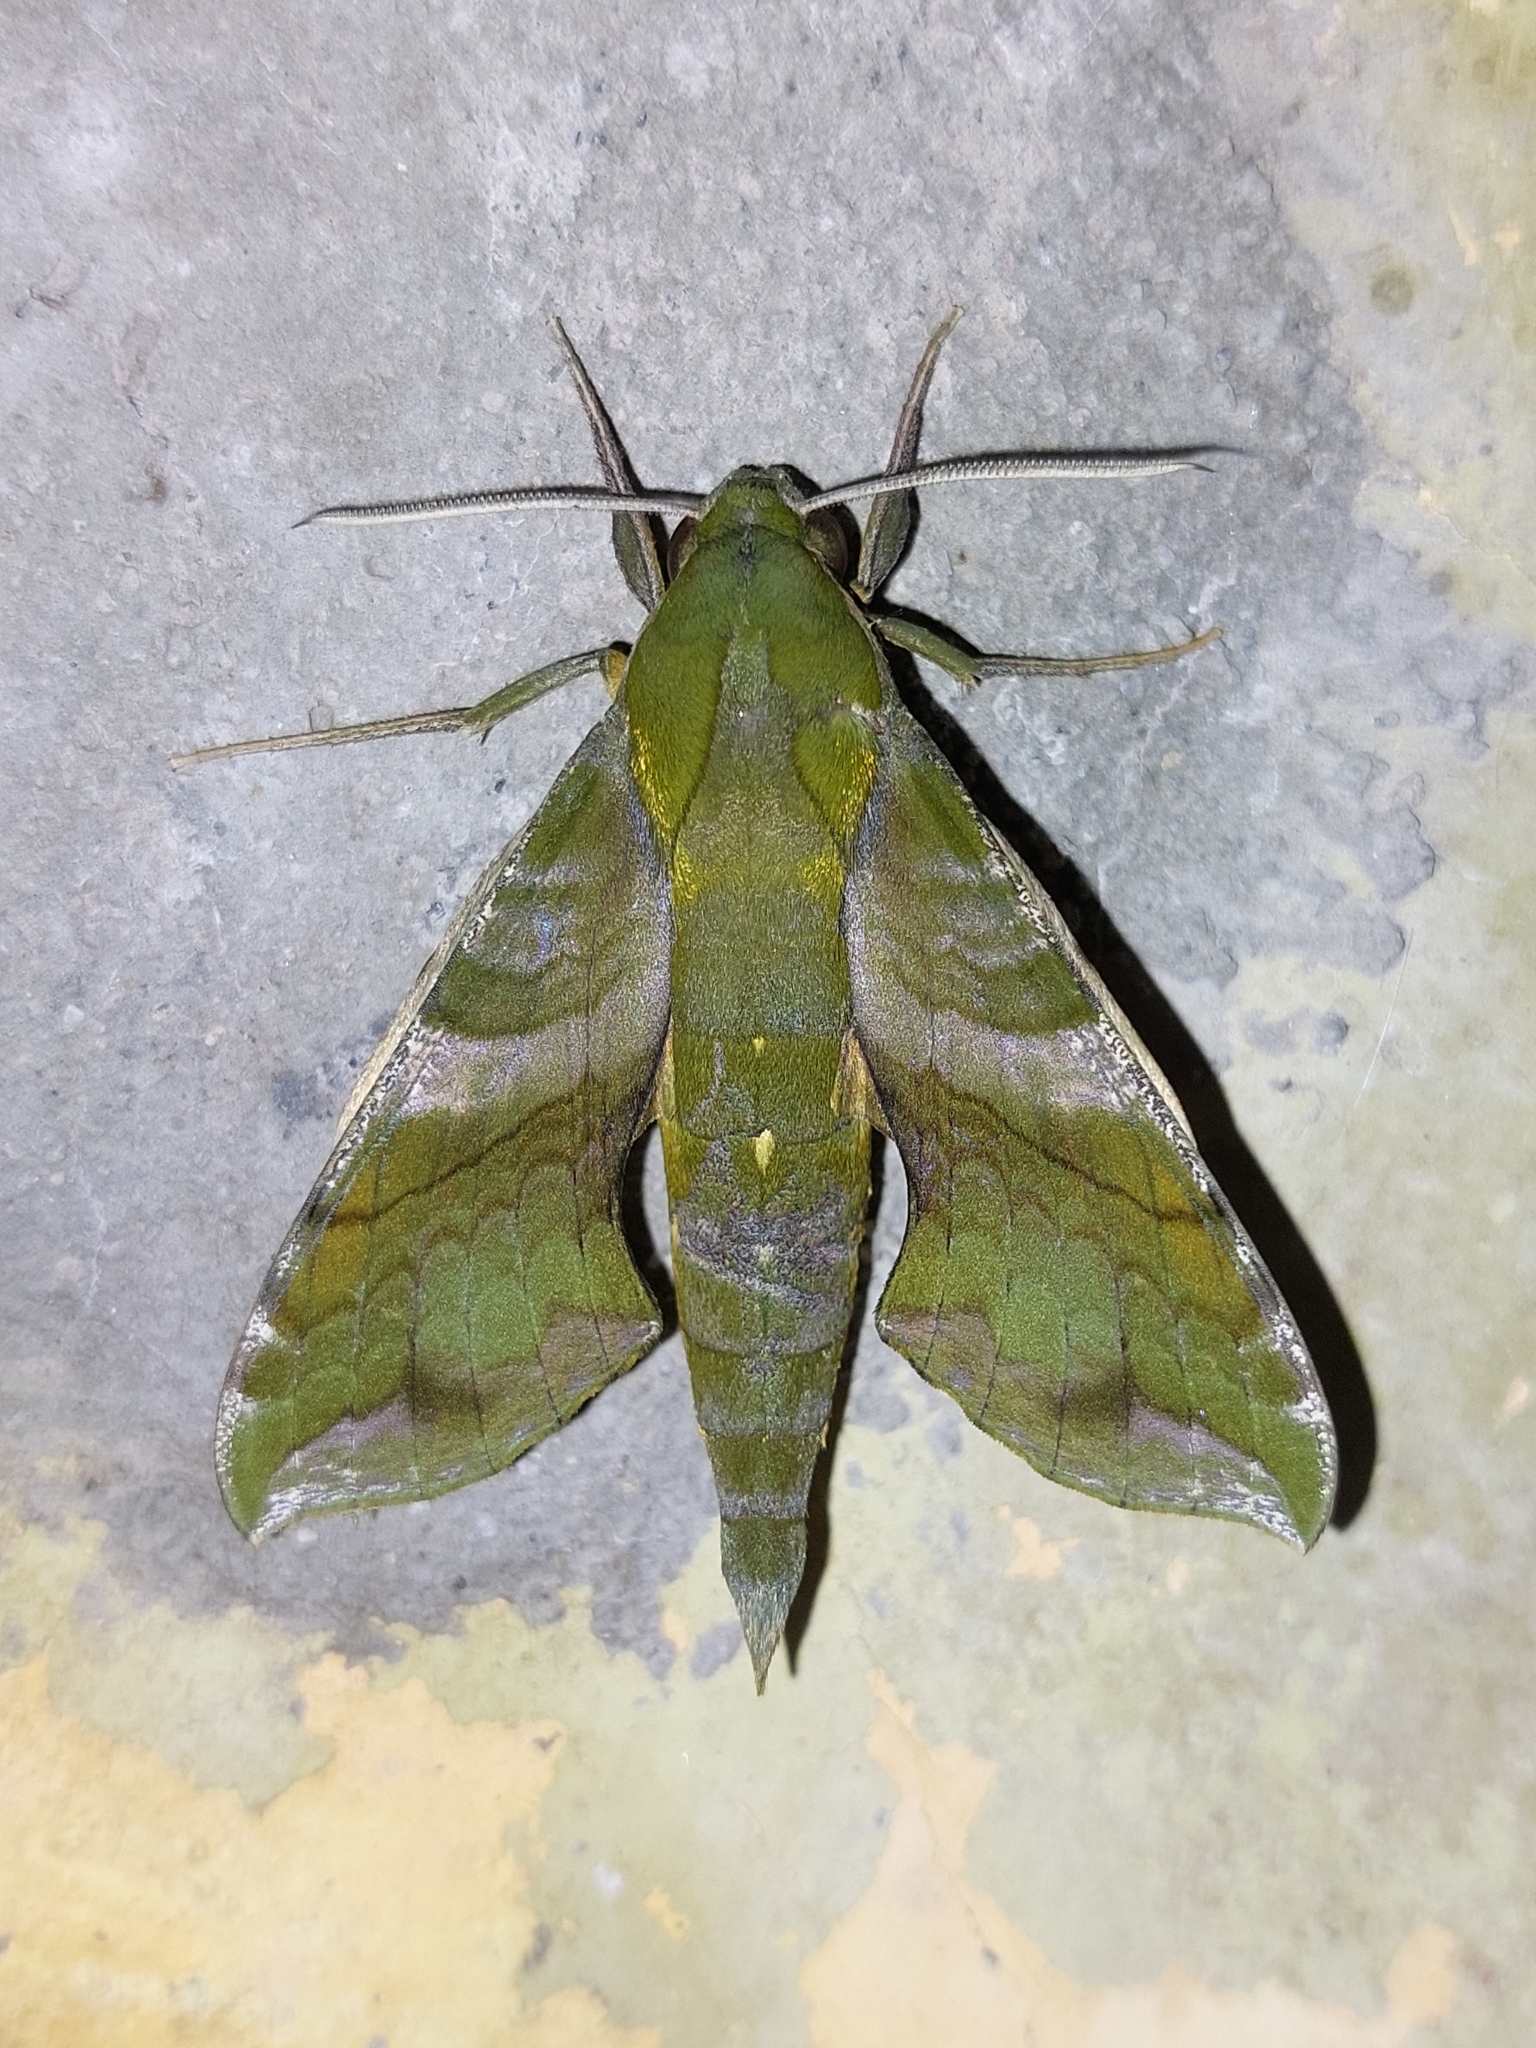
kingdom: Animalia
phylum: Arthropoda
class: Insecta
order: Lepidoptera
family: Sphingidae
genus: Xylophanes
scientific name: Xylophanes pluto
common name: Pluto sphinx
